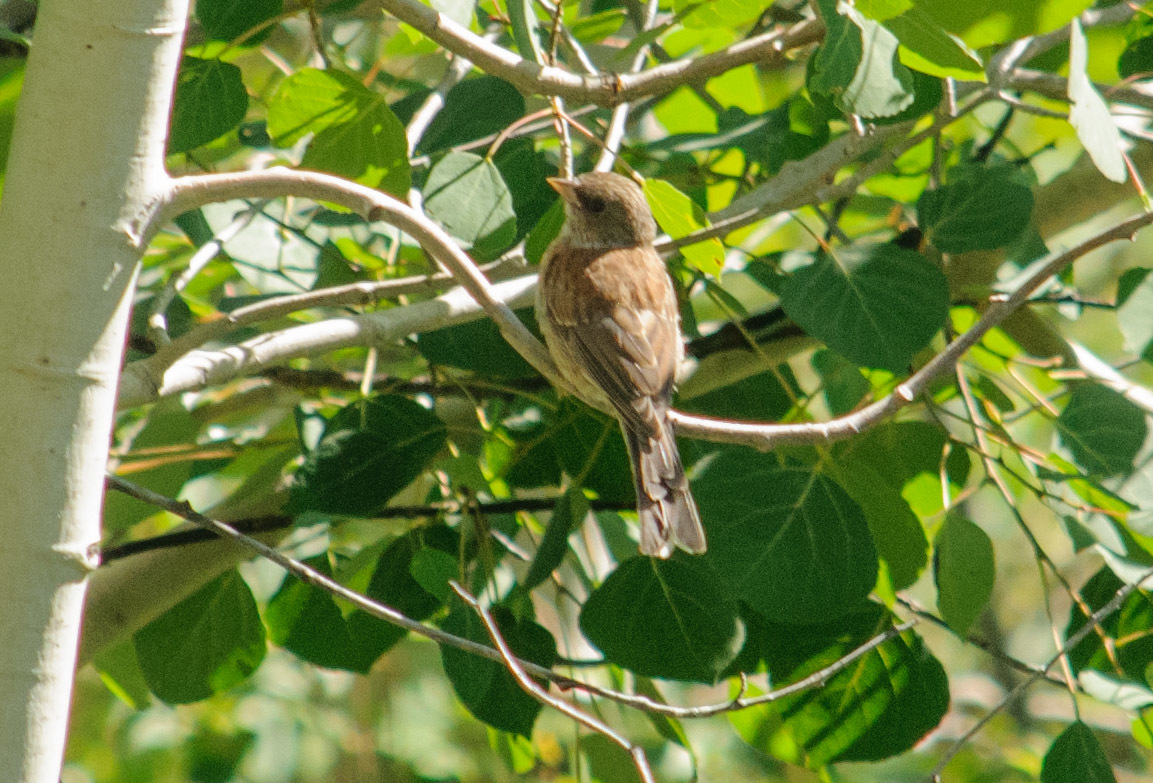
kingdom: Animalia
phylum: Chordata
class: Aves
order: Passeriformes
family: Passerellidae
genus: Junco
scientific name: Junco hyemalis
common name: Dark-eyed junco
